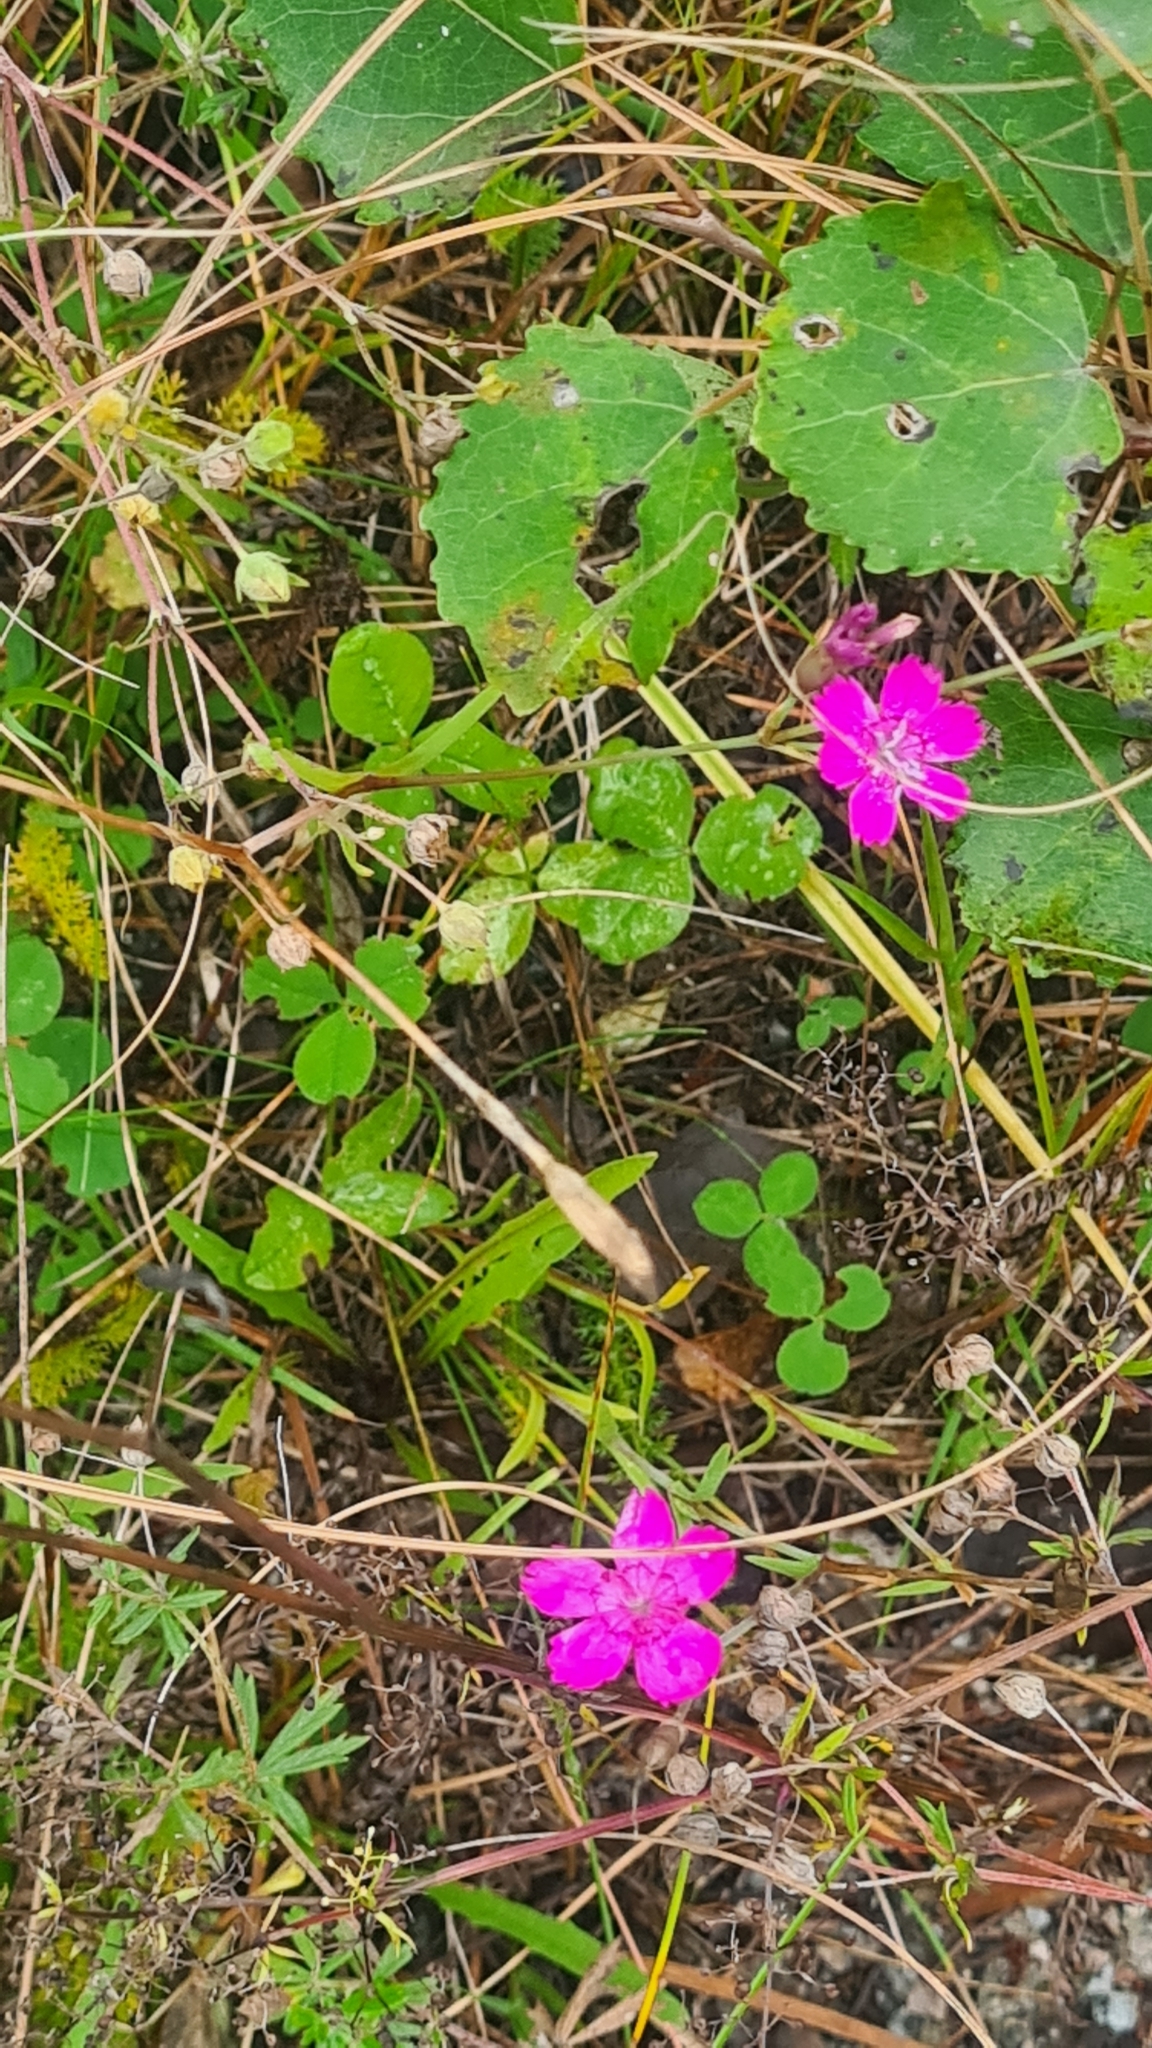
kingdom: Plantae
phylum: Tracheophyta
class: Magnoliopsida
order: Caryophyllales
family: Caryophyllaceae
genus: Dianthus
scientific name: Dianthus deltoides
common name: Maiden pink
